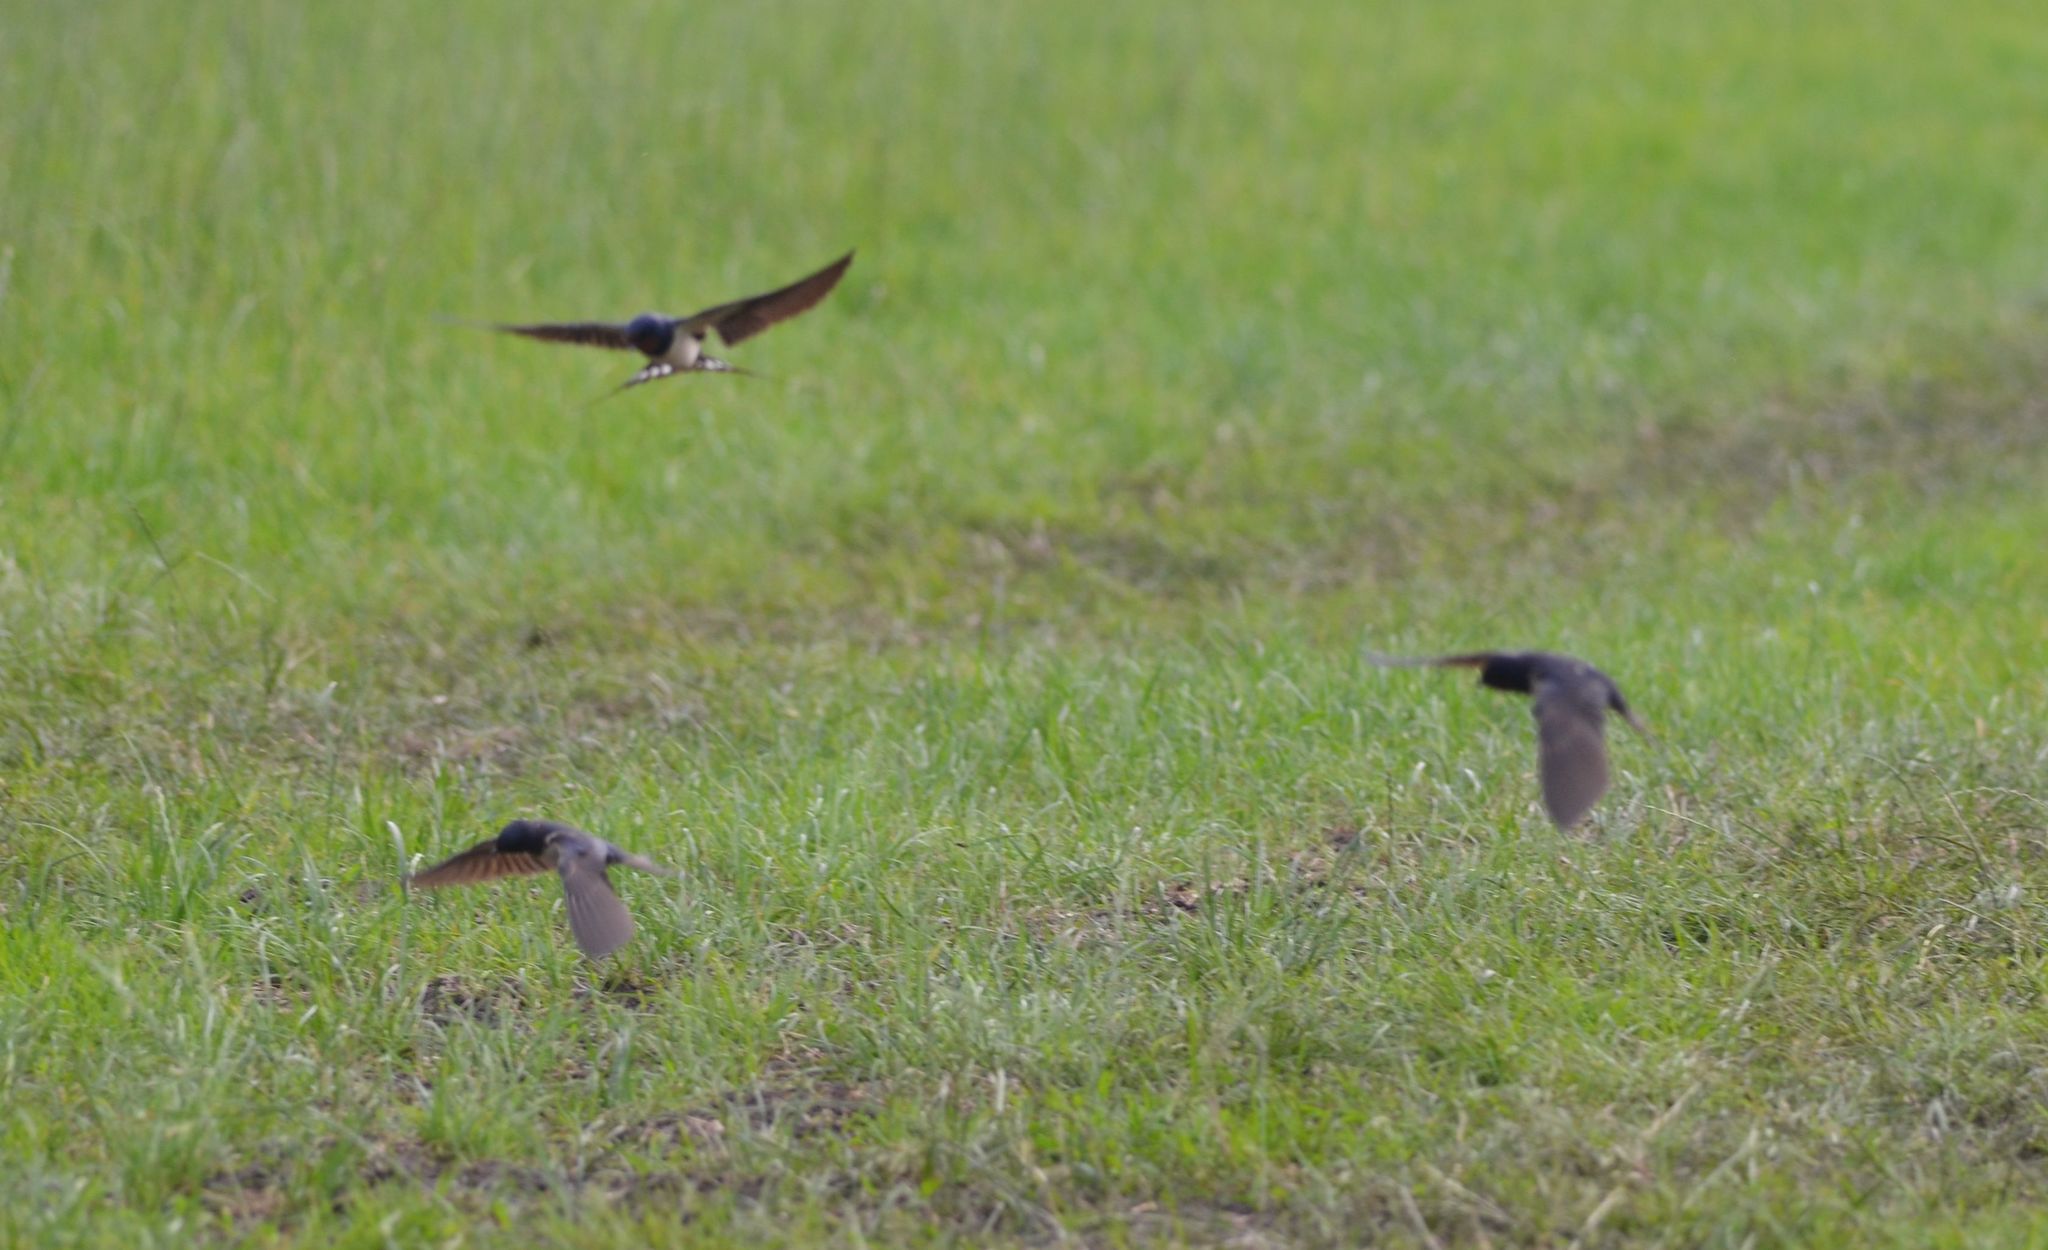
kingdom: Animalia
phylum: Chordata
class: Aves
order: Passeriformes
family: Hirundinidae
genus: Hirundo
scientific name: Hirundo rustica
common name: Barn swallow
